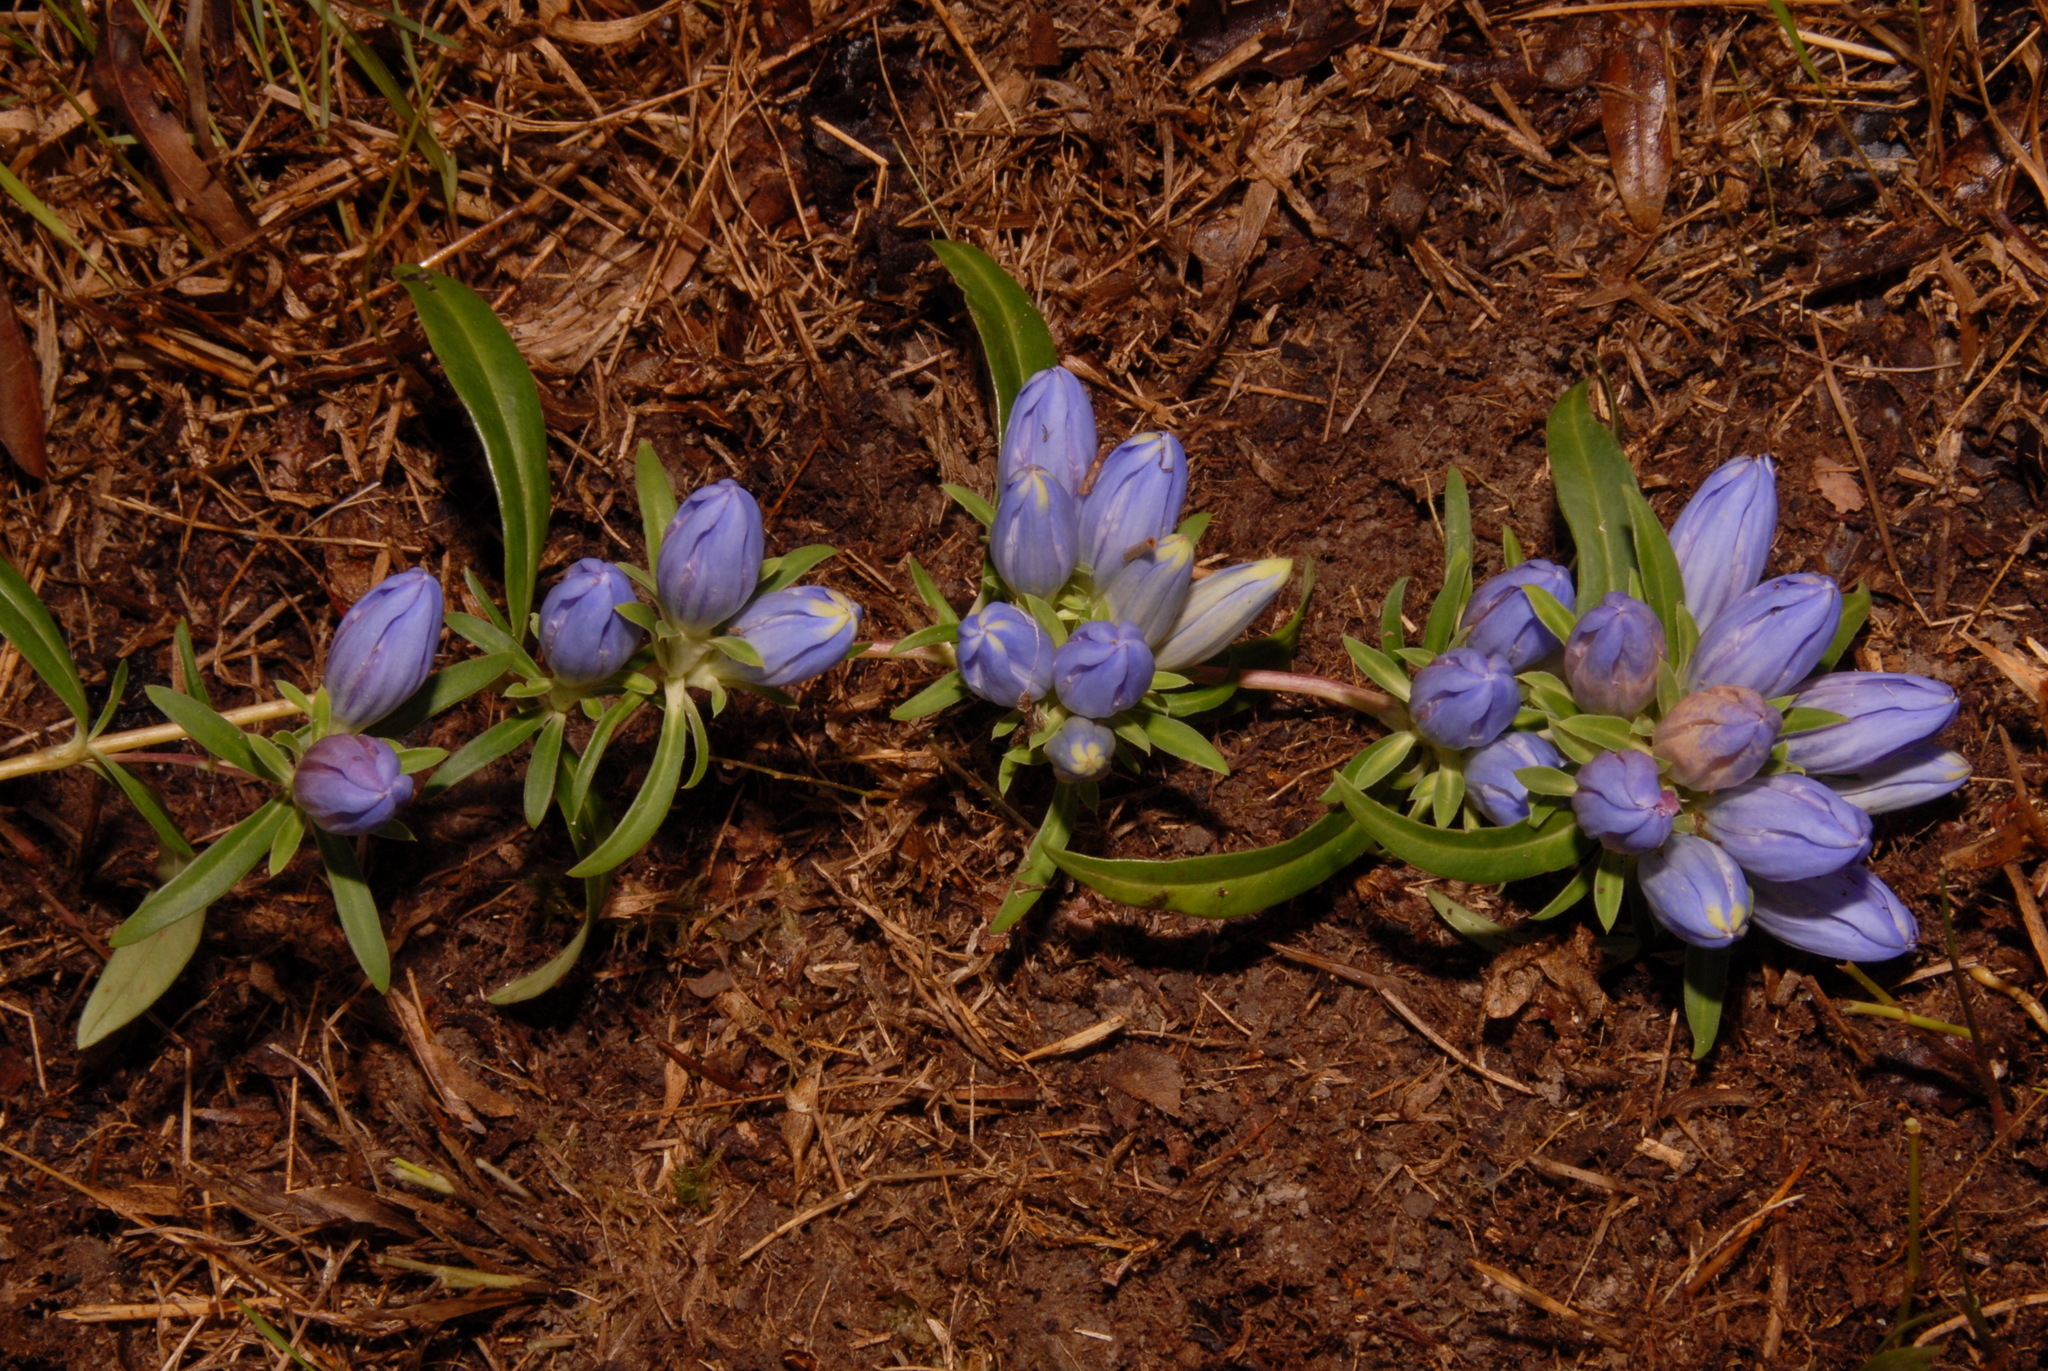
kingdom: Plantae
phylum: Tracheophyta
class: Magnoliopsida
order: Gentianales
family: Gentianaceae
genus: Gentiana
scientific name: Gentiana saponaria
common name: Soapwort gentian
